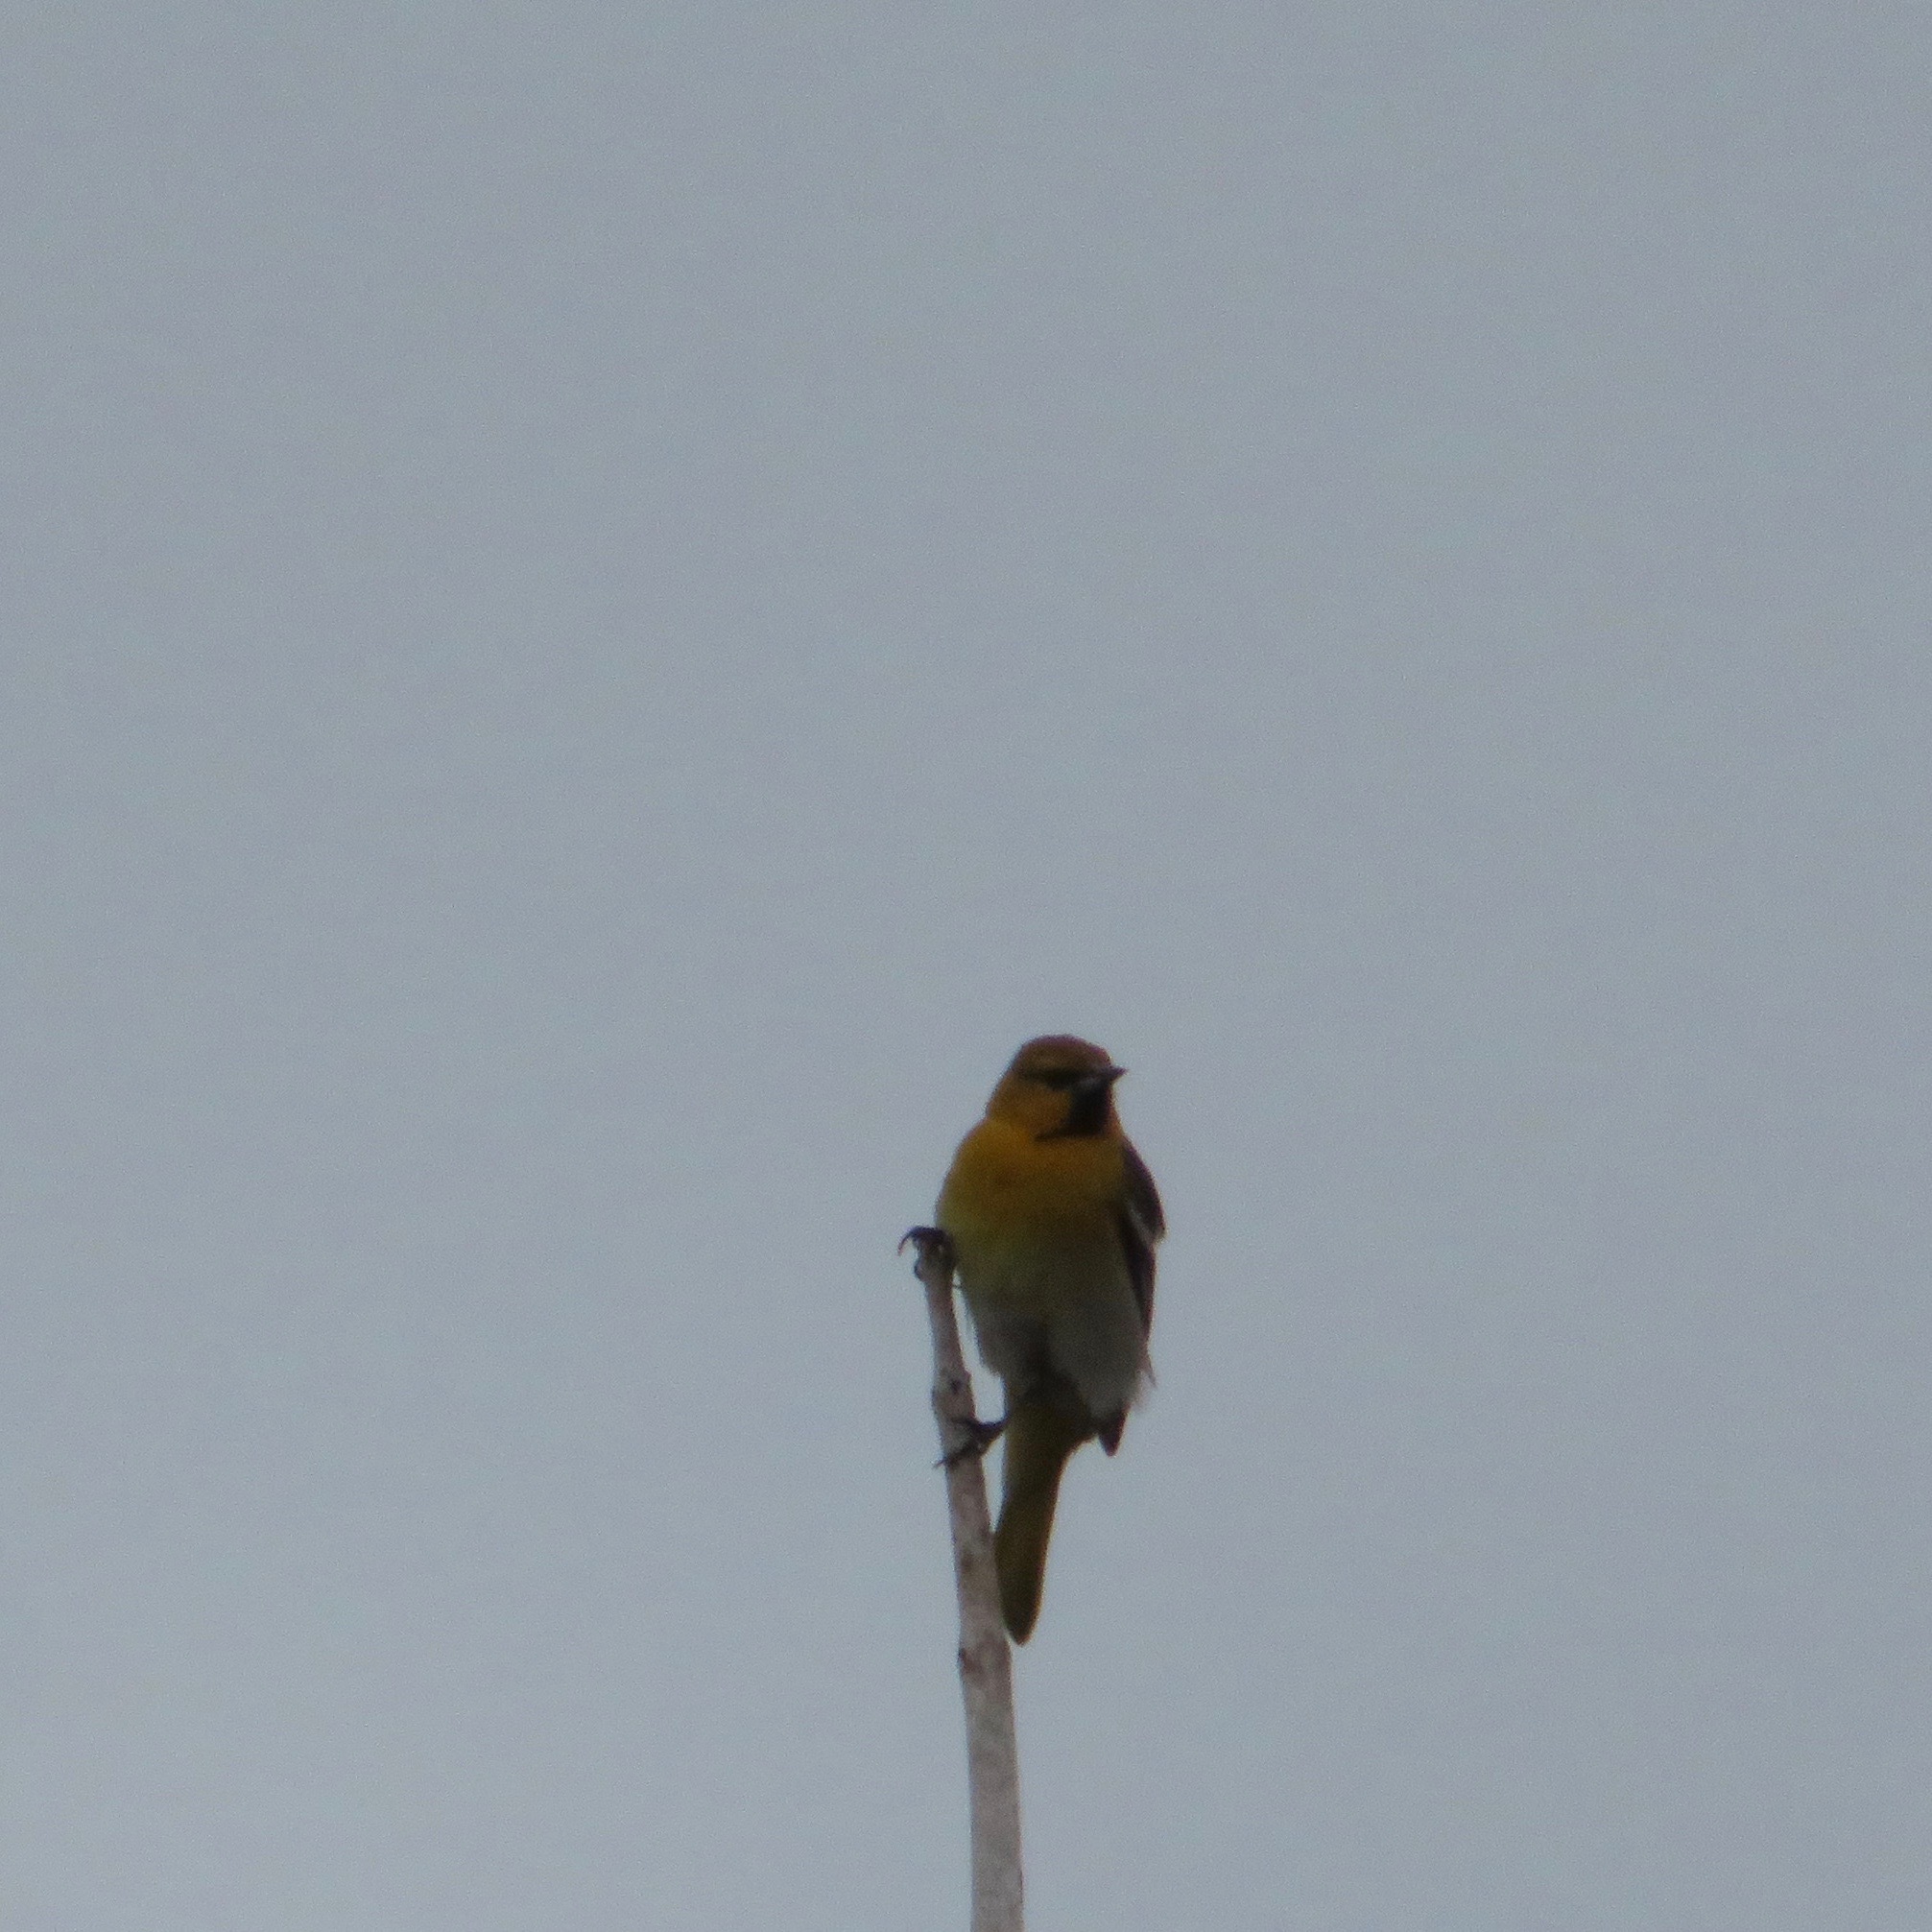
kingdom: Animalia
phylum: Chordata
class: Aves
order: Passeriformes
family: Icteridae
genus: Icterus
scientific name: Icterus bullockii
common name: Bullock's oriole
